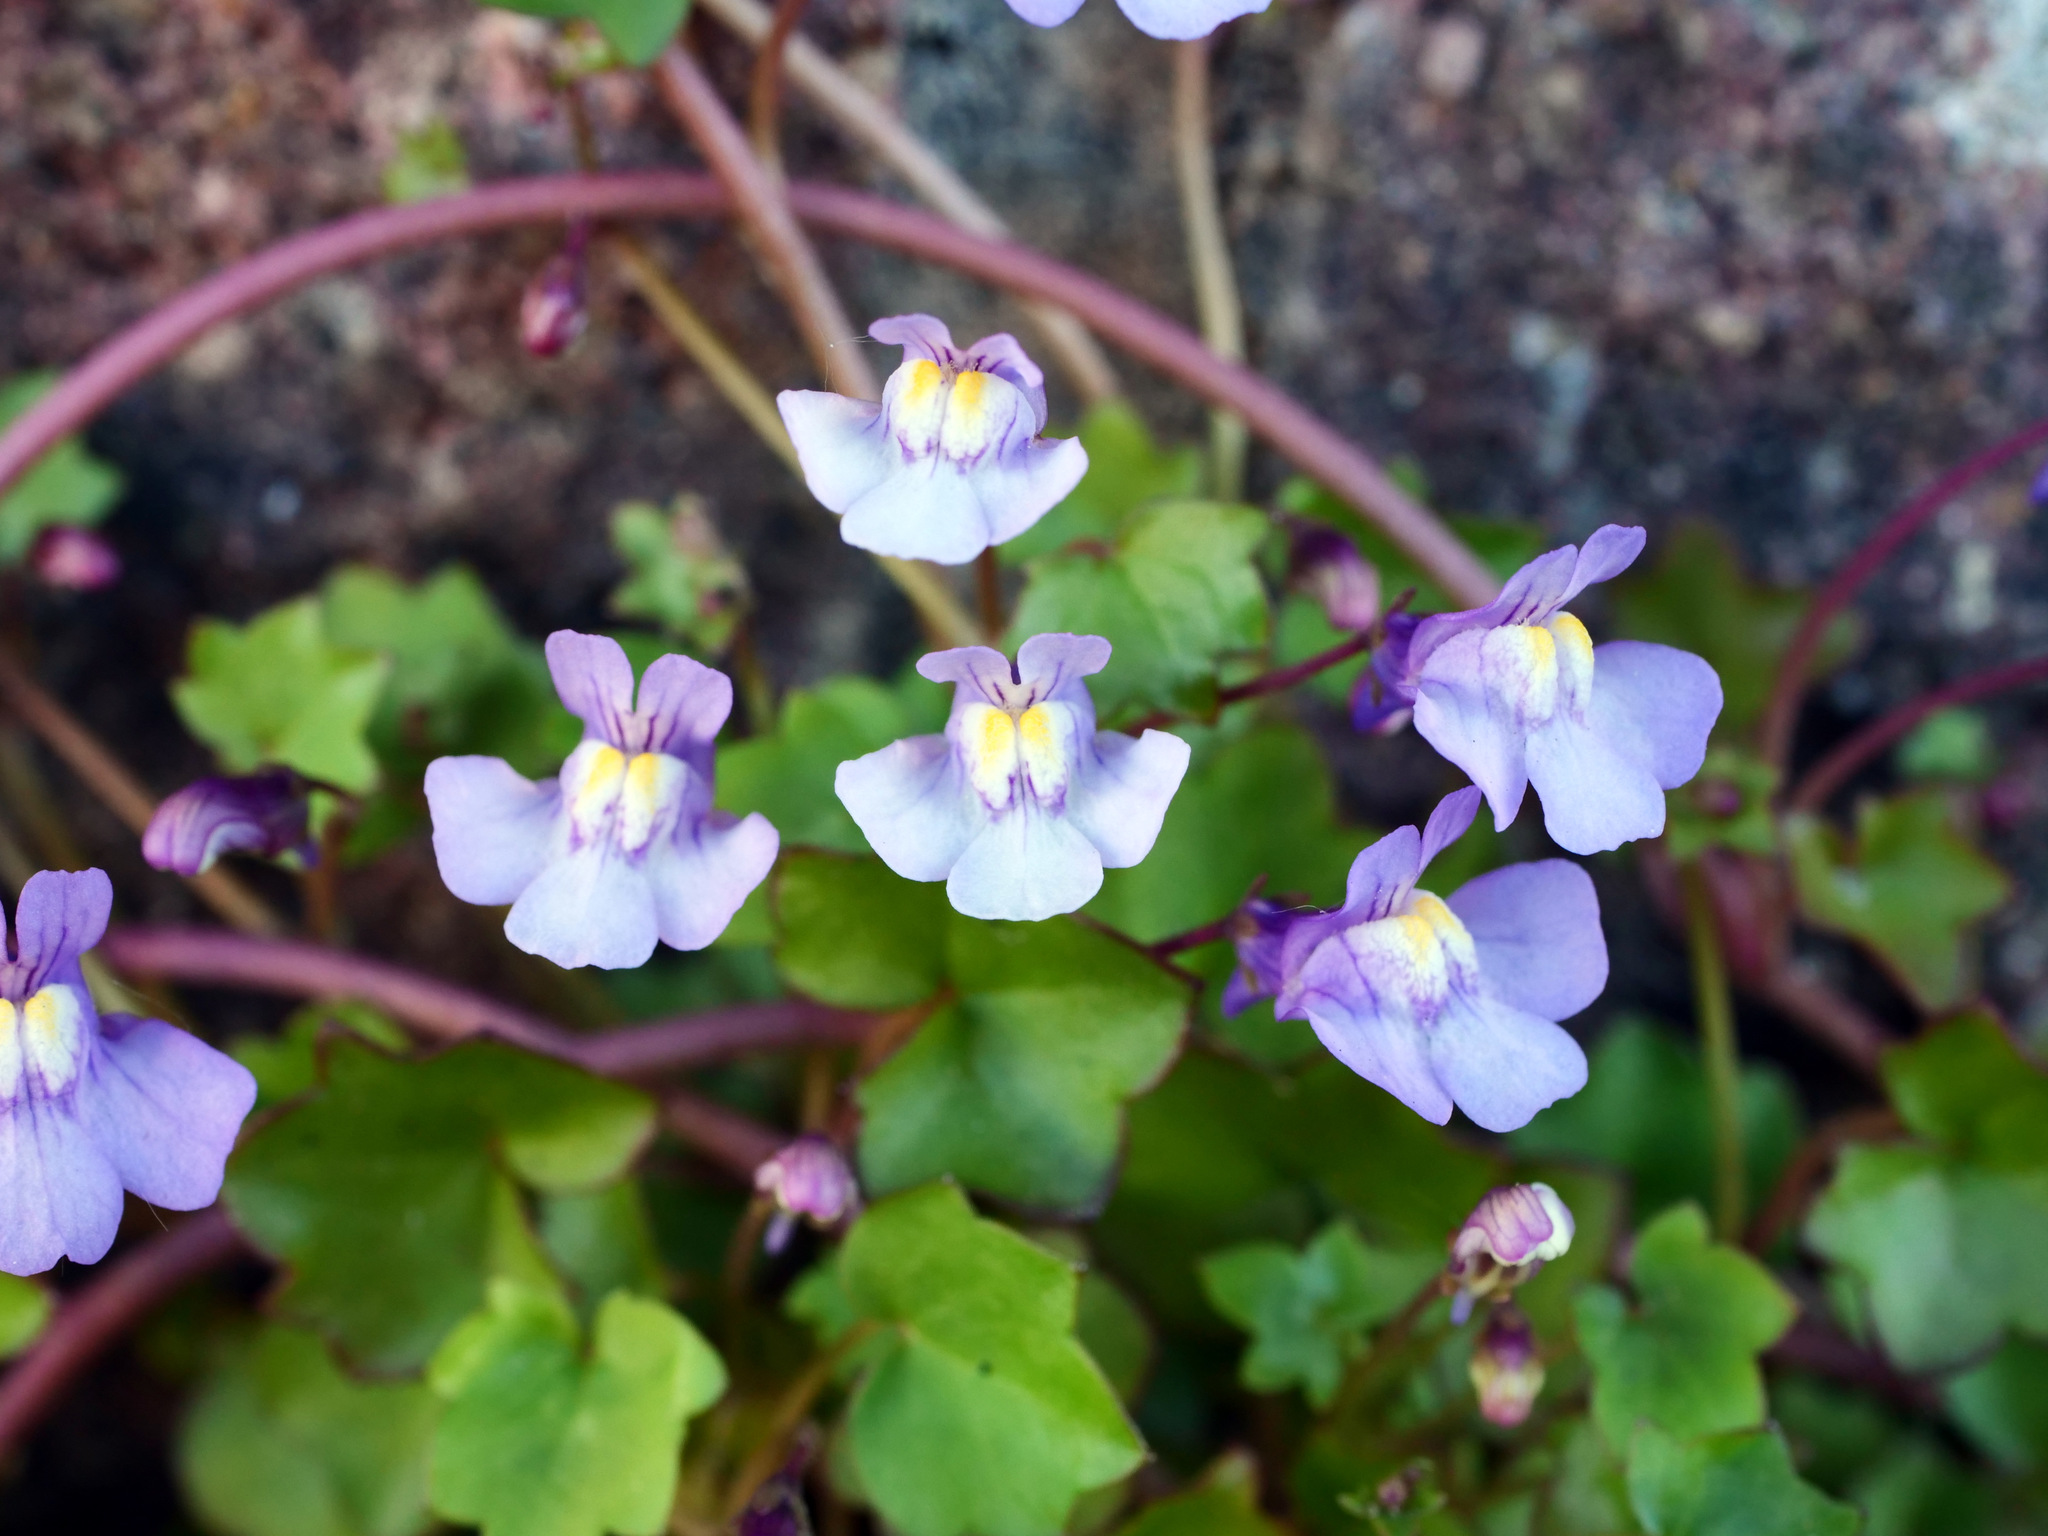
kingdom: Plantae
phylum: Tracheophyta
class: Magnoliopsida
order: Lamiales
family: Plantaginaceae
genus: Cymbalaria
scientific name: Cymbalaria muralis
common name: Ivy-leaved toadflax
